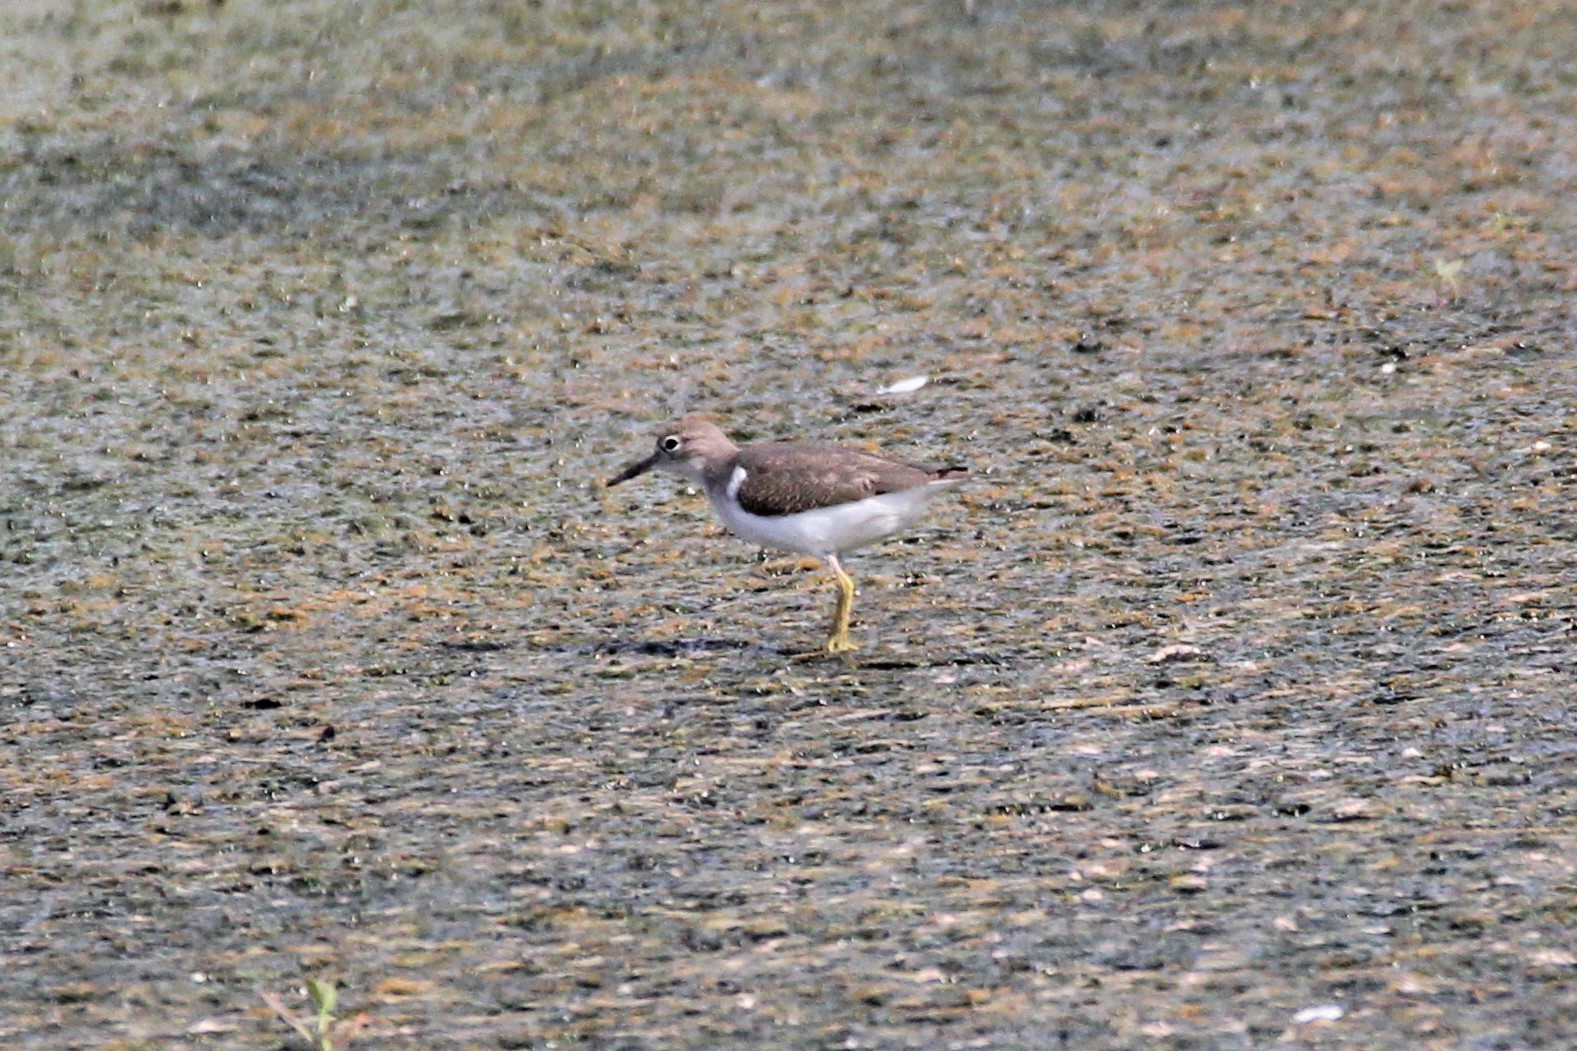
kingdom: Animalia
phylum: Chordata
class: Aves
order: Charadriiformes
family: Scolopacidae
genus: Actitis
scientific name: Actitis macularius
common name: Spotted sandpiper
